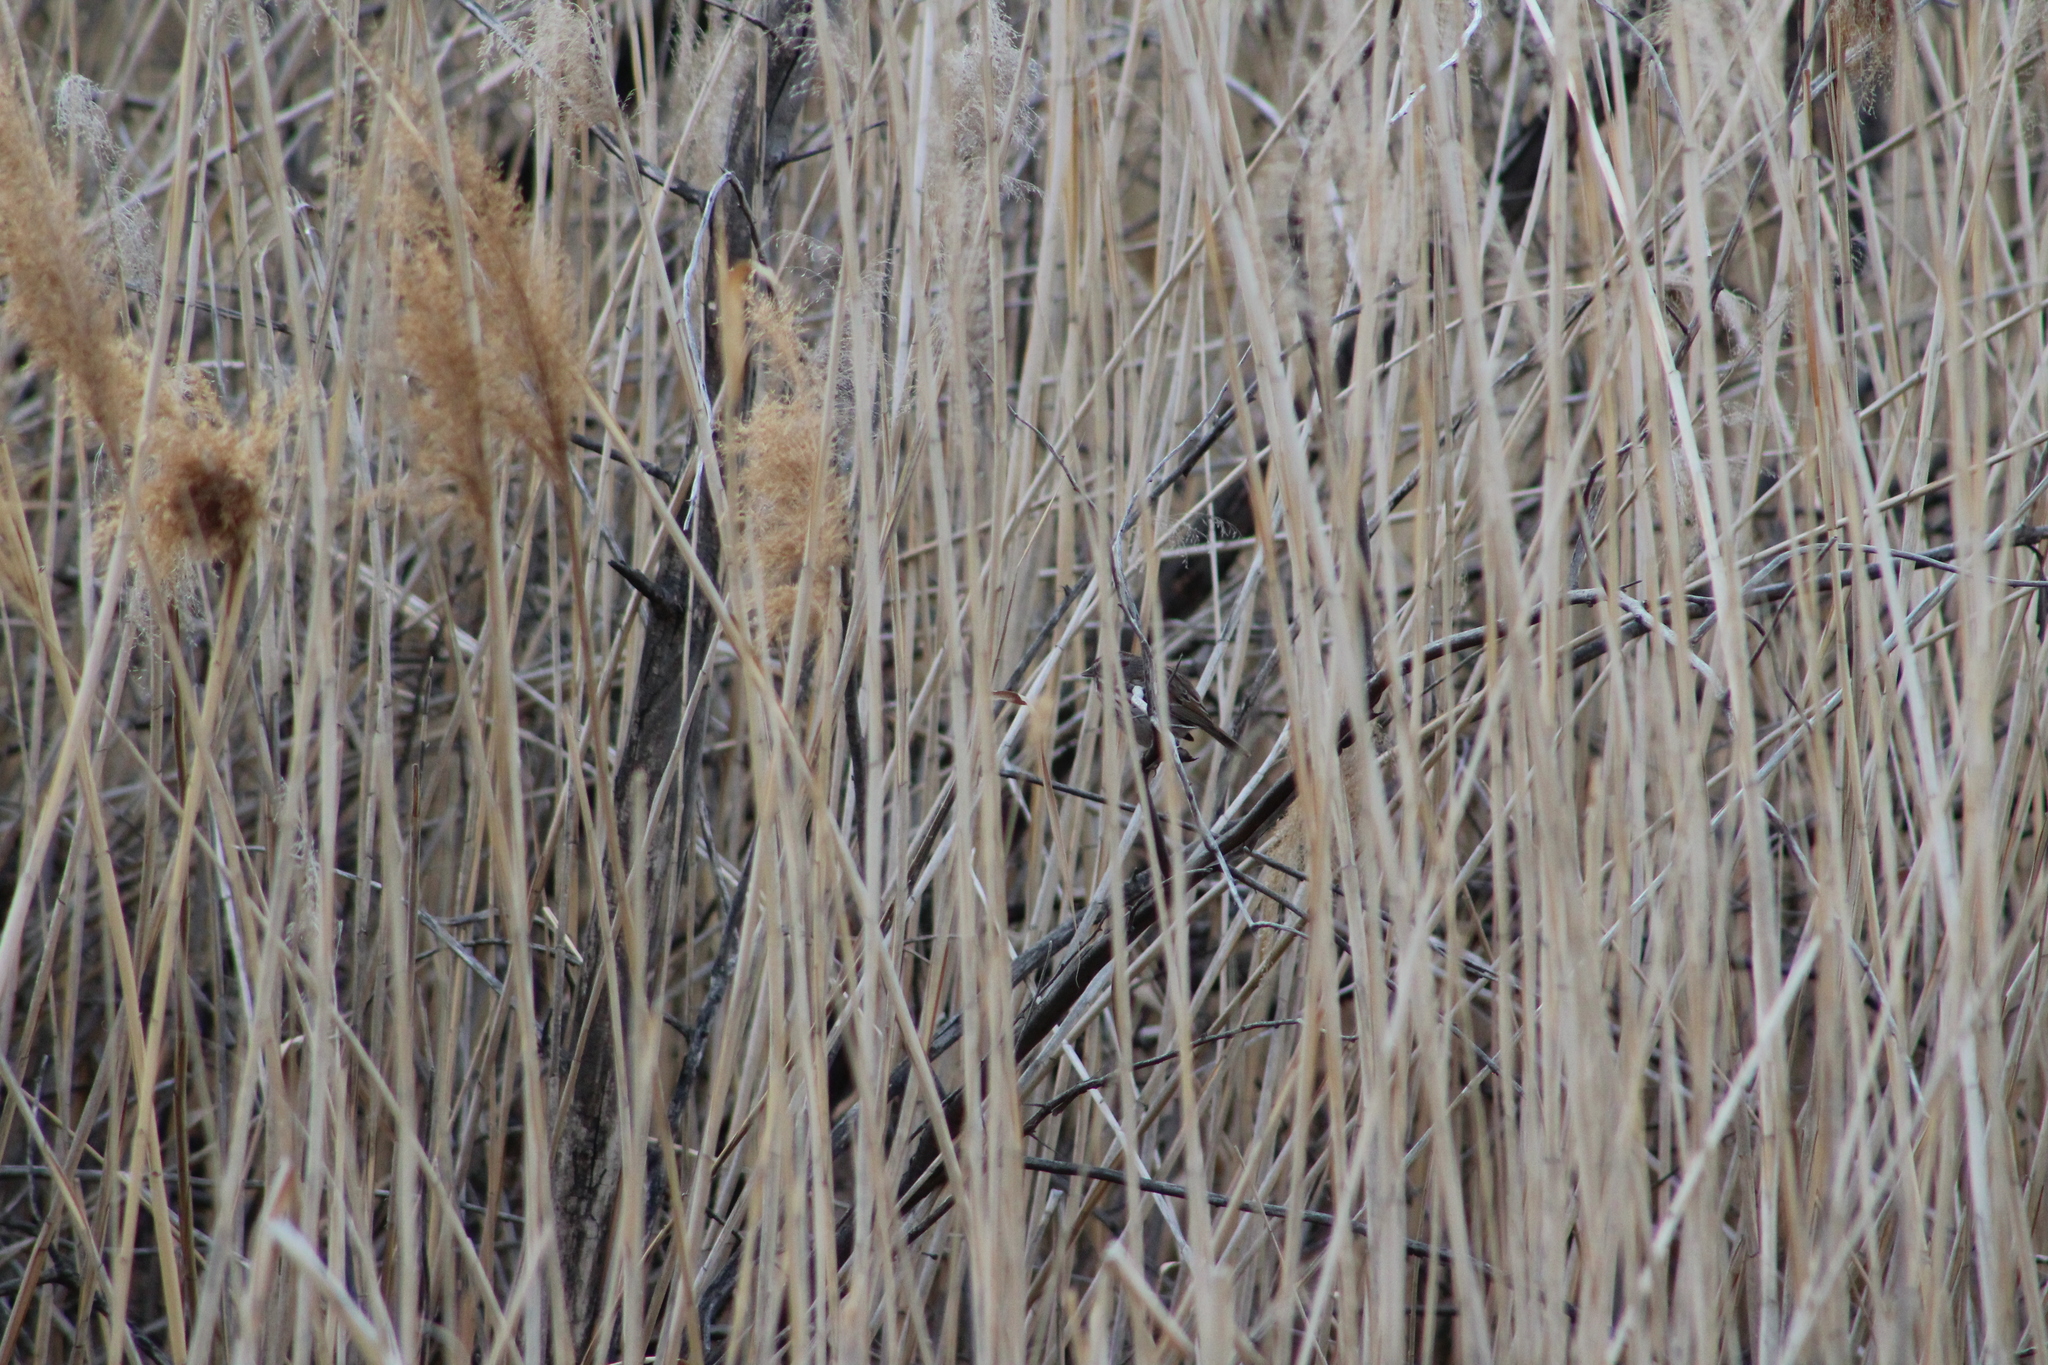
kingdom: Animalia
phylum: Chordata
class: Aves
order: Passeriformes
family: Passerellidae
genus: Melospiza
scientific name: Melospiza melodia
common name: Song sparrow
